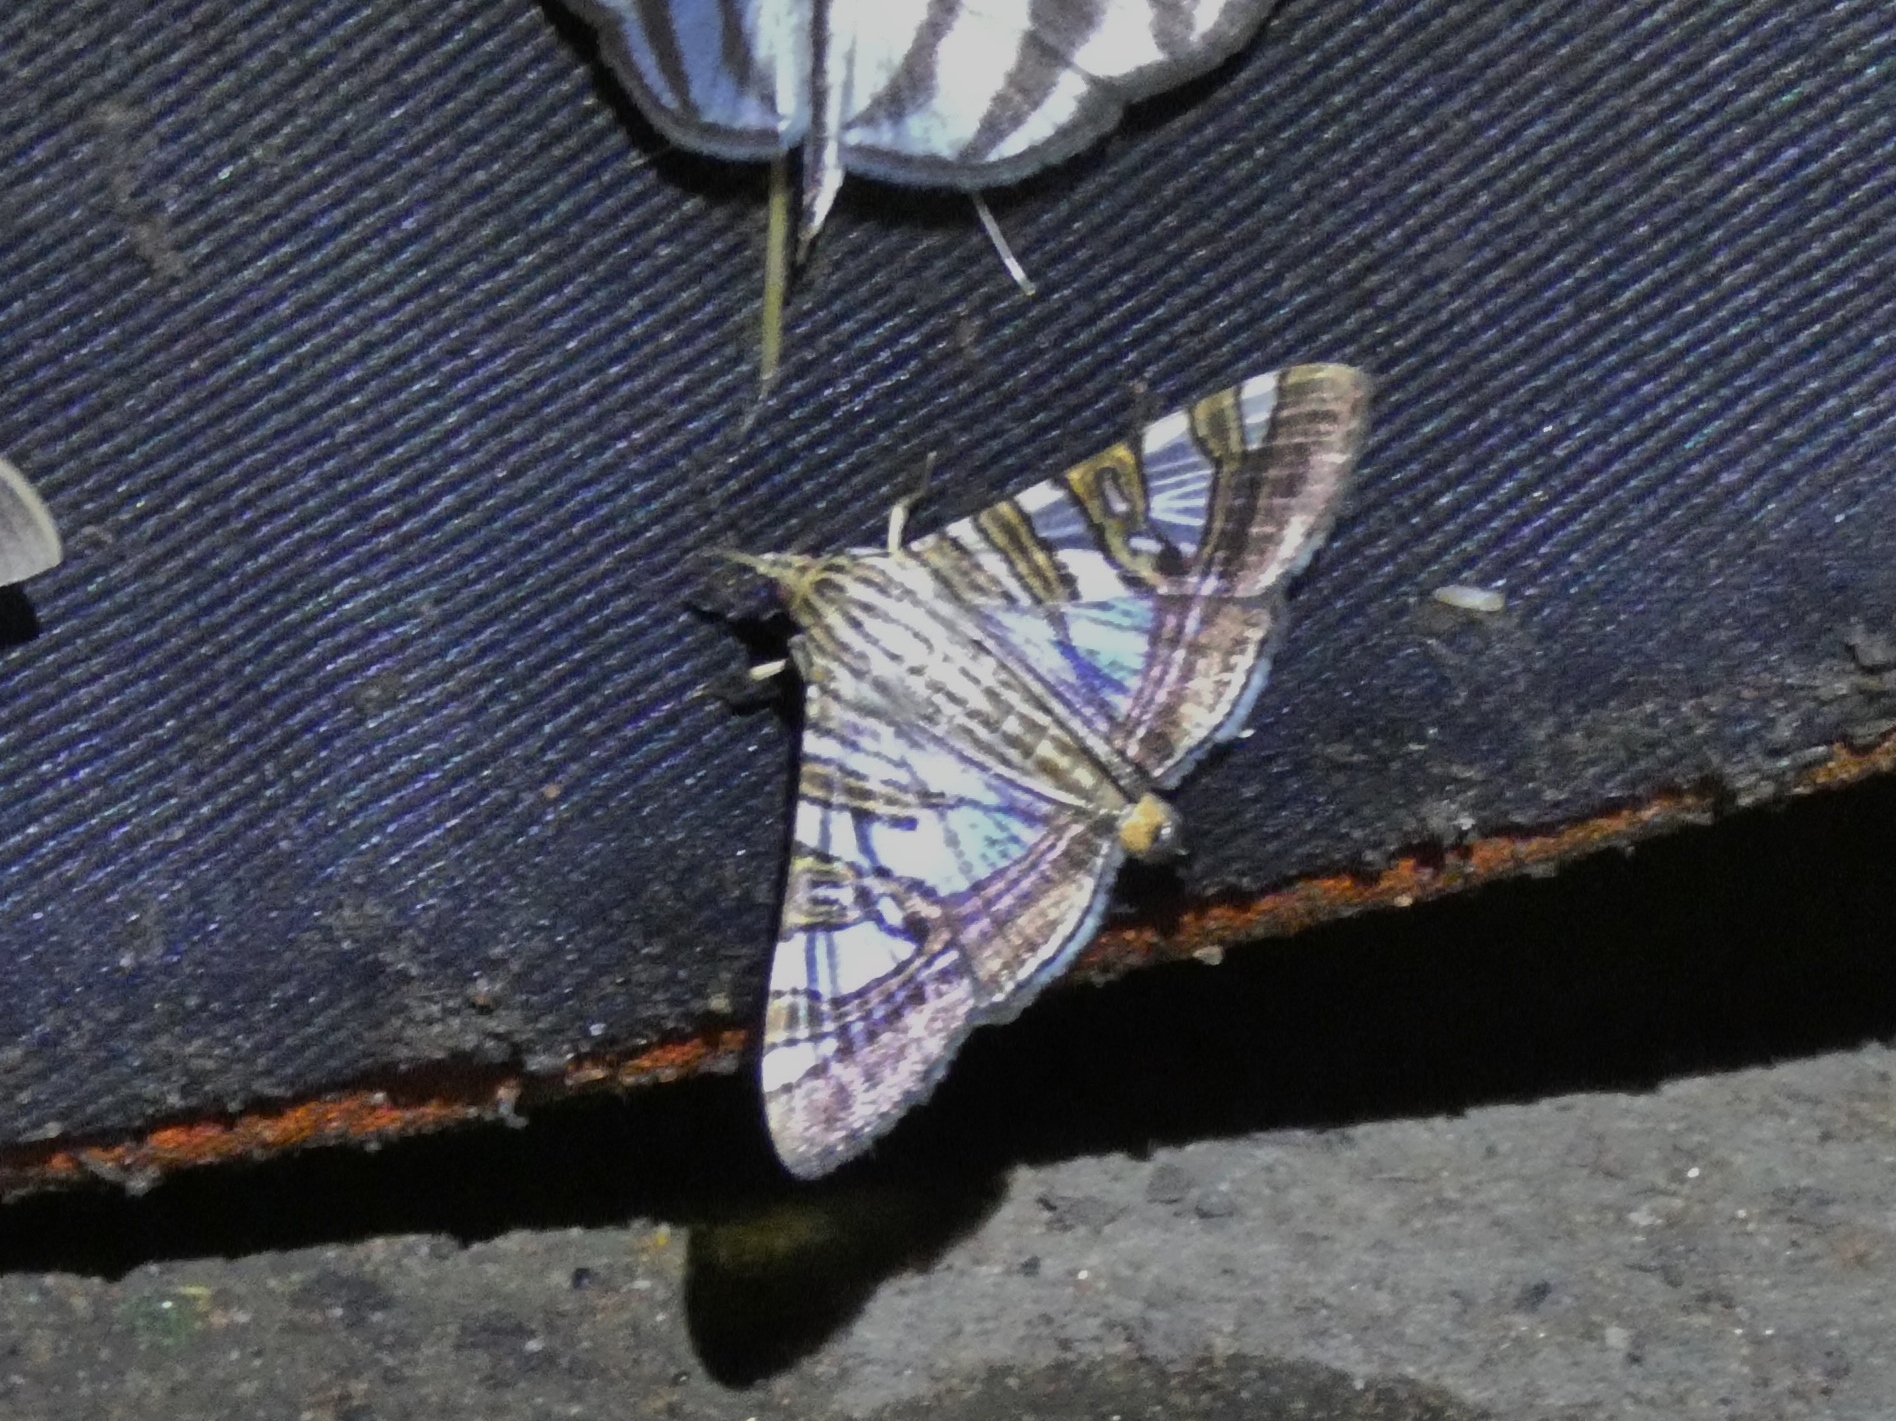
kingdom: Animalia
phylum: Arthropoda
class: Insecta
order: Lepidoptera
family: Crambidae
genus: Glyphodes
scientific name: Glyphodes stolalis
